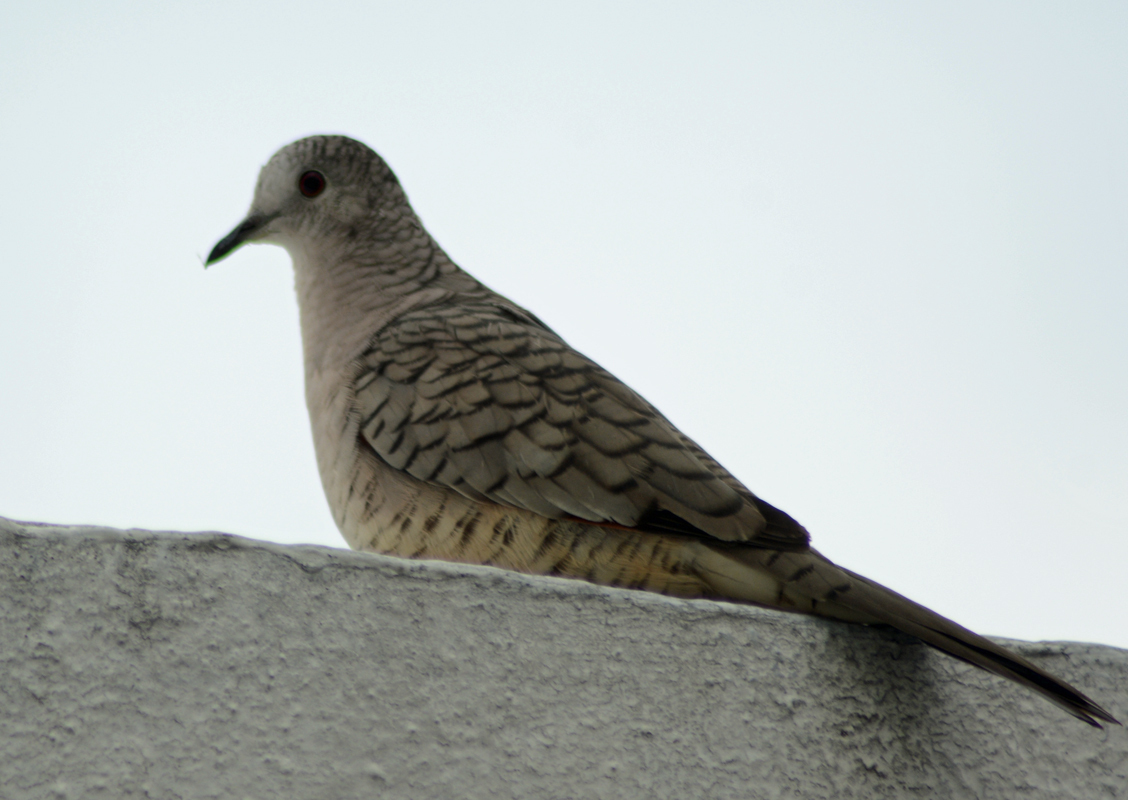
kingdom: Animalia
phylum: Chordata
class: Aves
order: Columbiformes
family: Columbidae
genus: Columbina
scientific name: Columbina inca
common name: Inca dove
